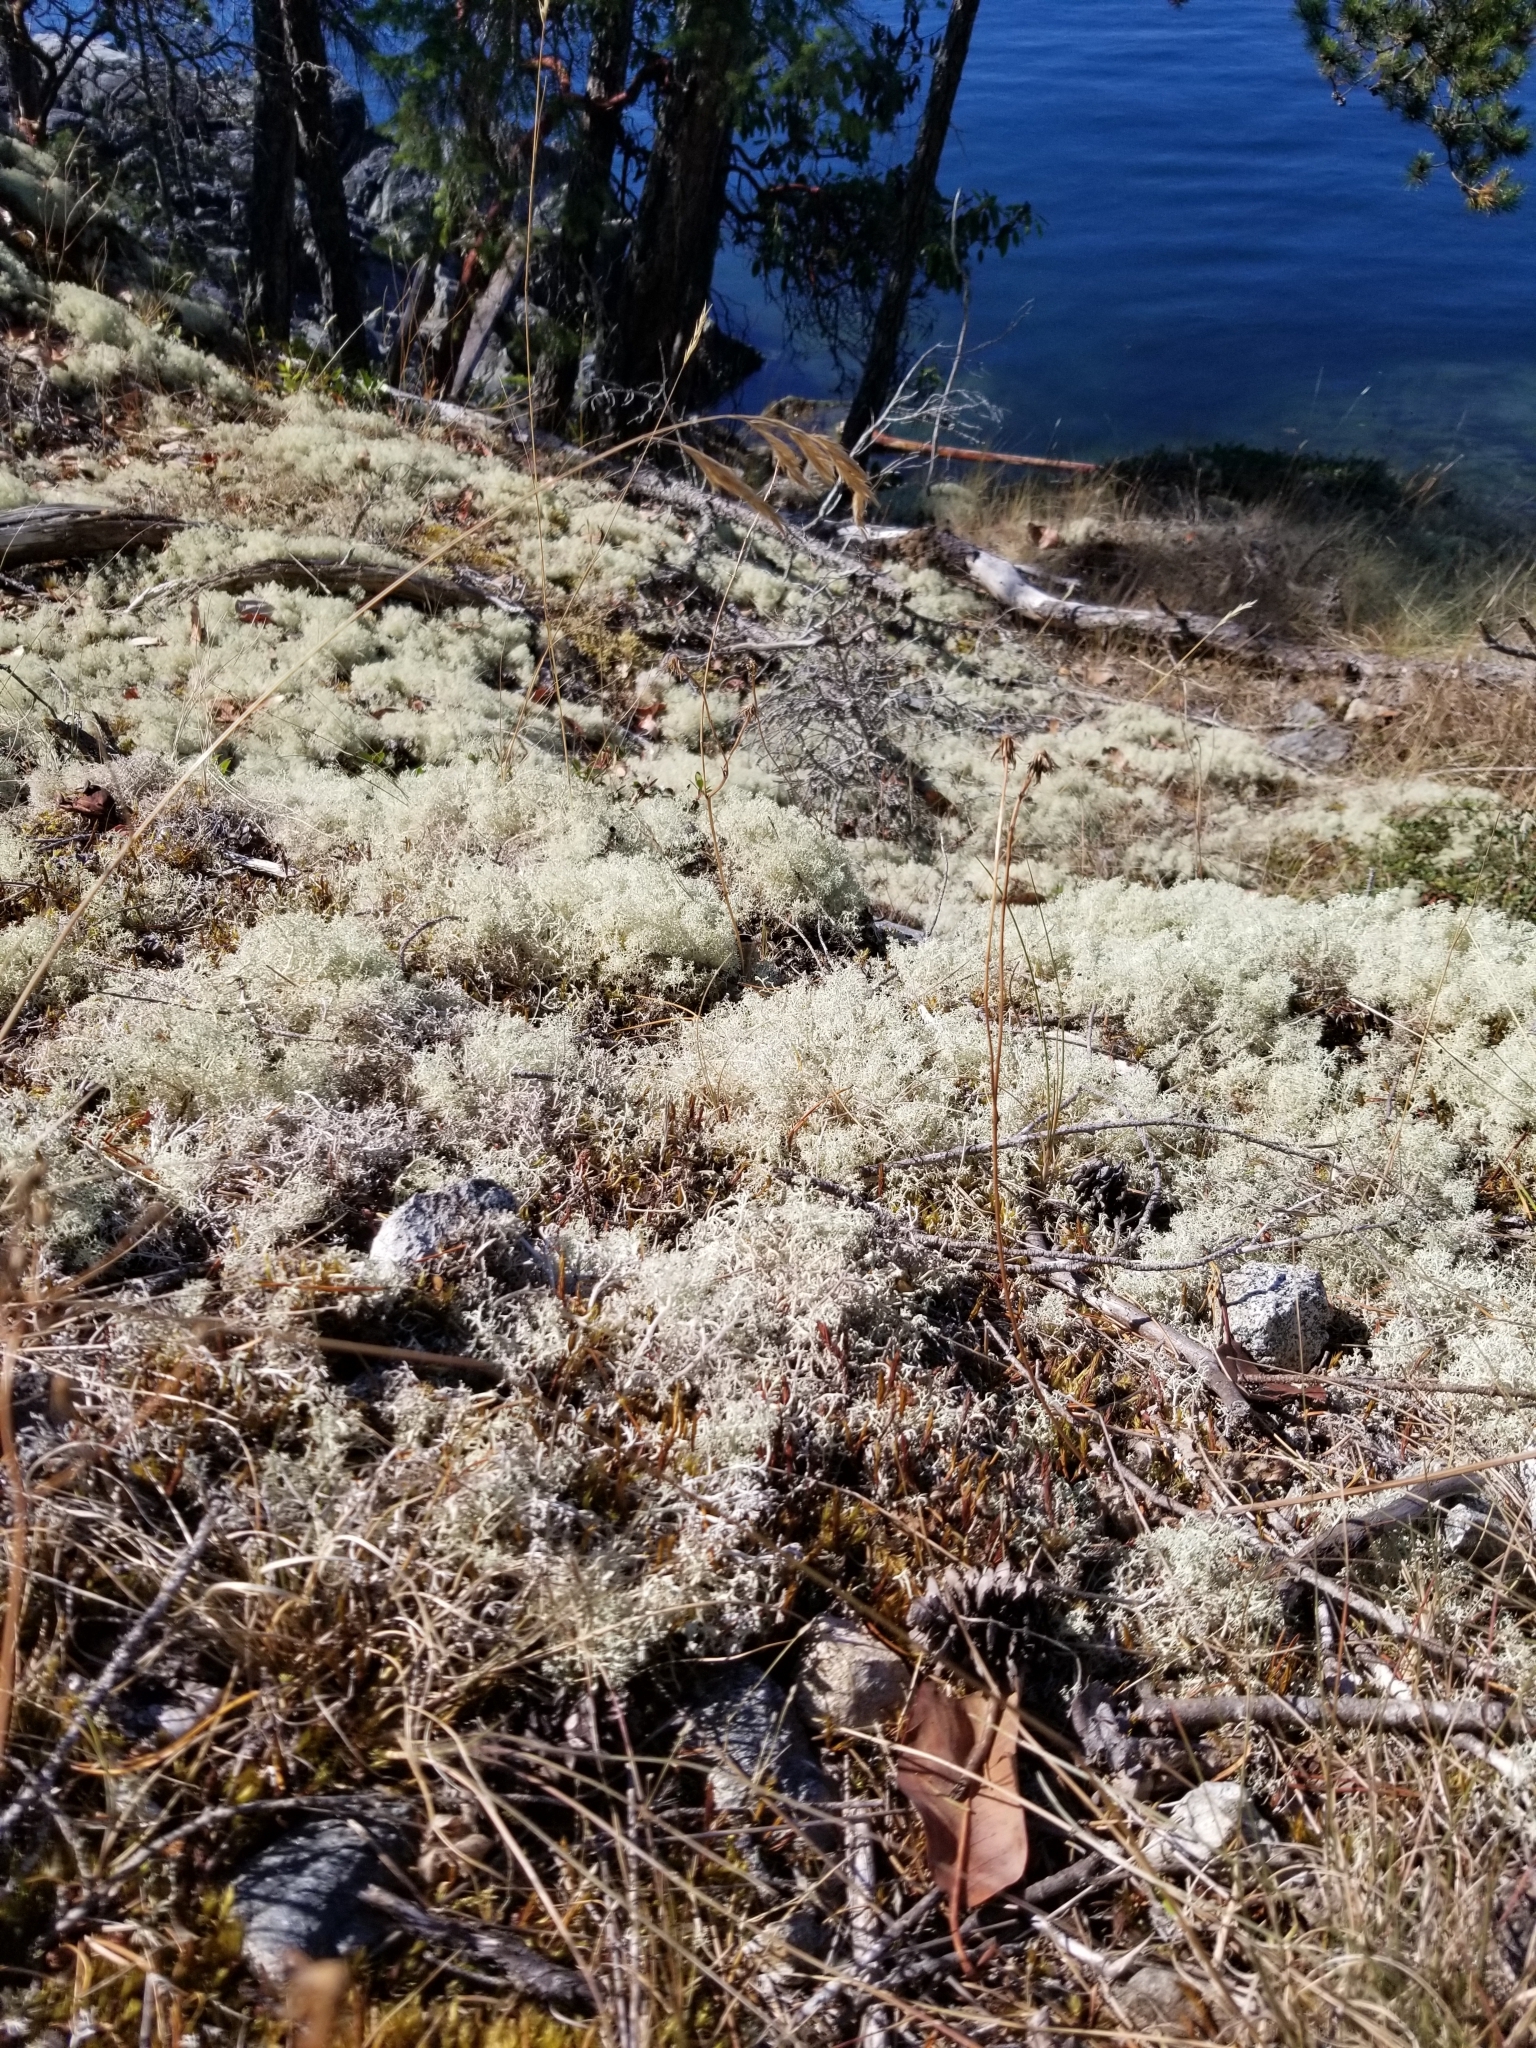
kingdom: Fungi
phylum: Ascomycota
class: Lecanoromycetes
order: Lecanorales
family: Cladoniaceae
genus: Cladonia
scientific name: Cladonia portentosa
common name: Reindeer lichen
